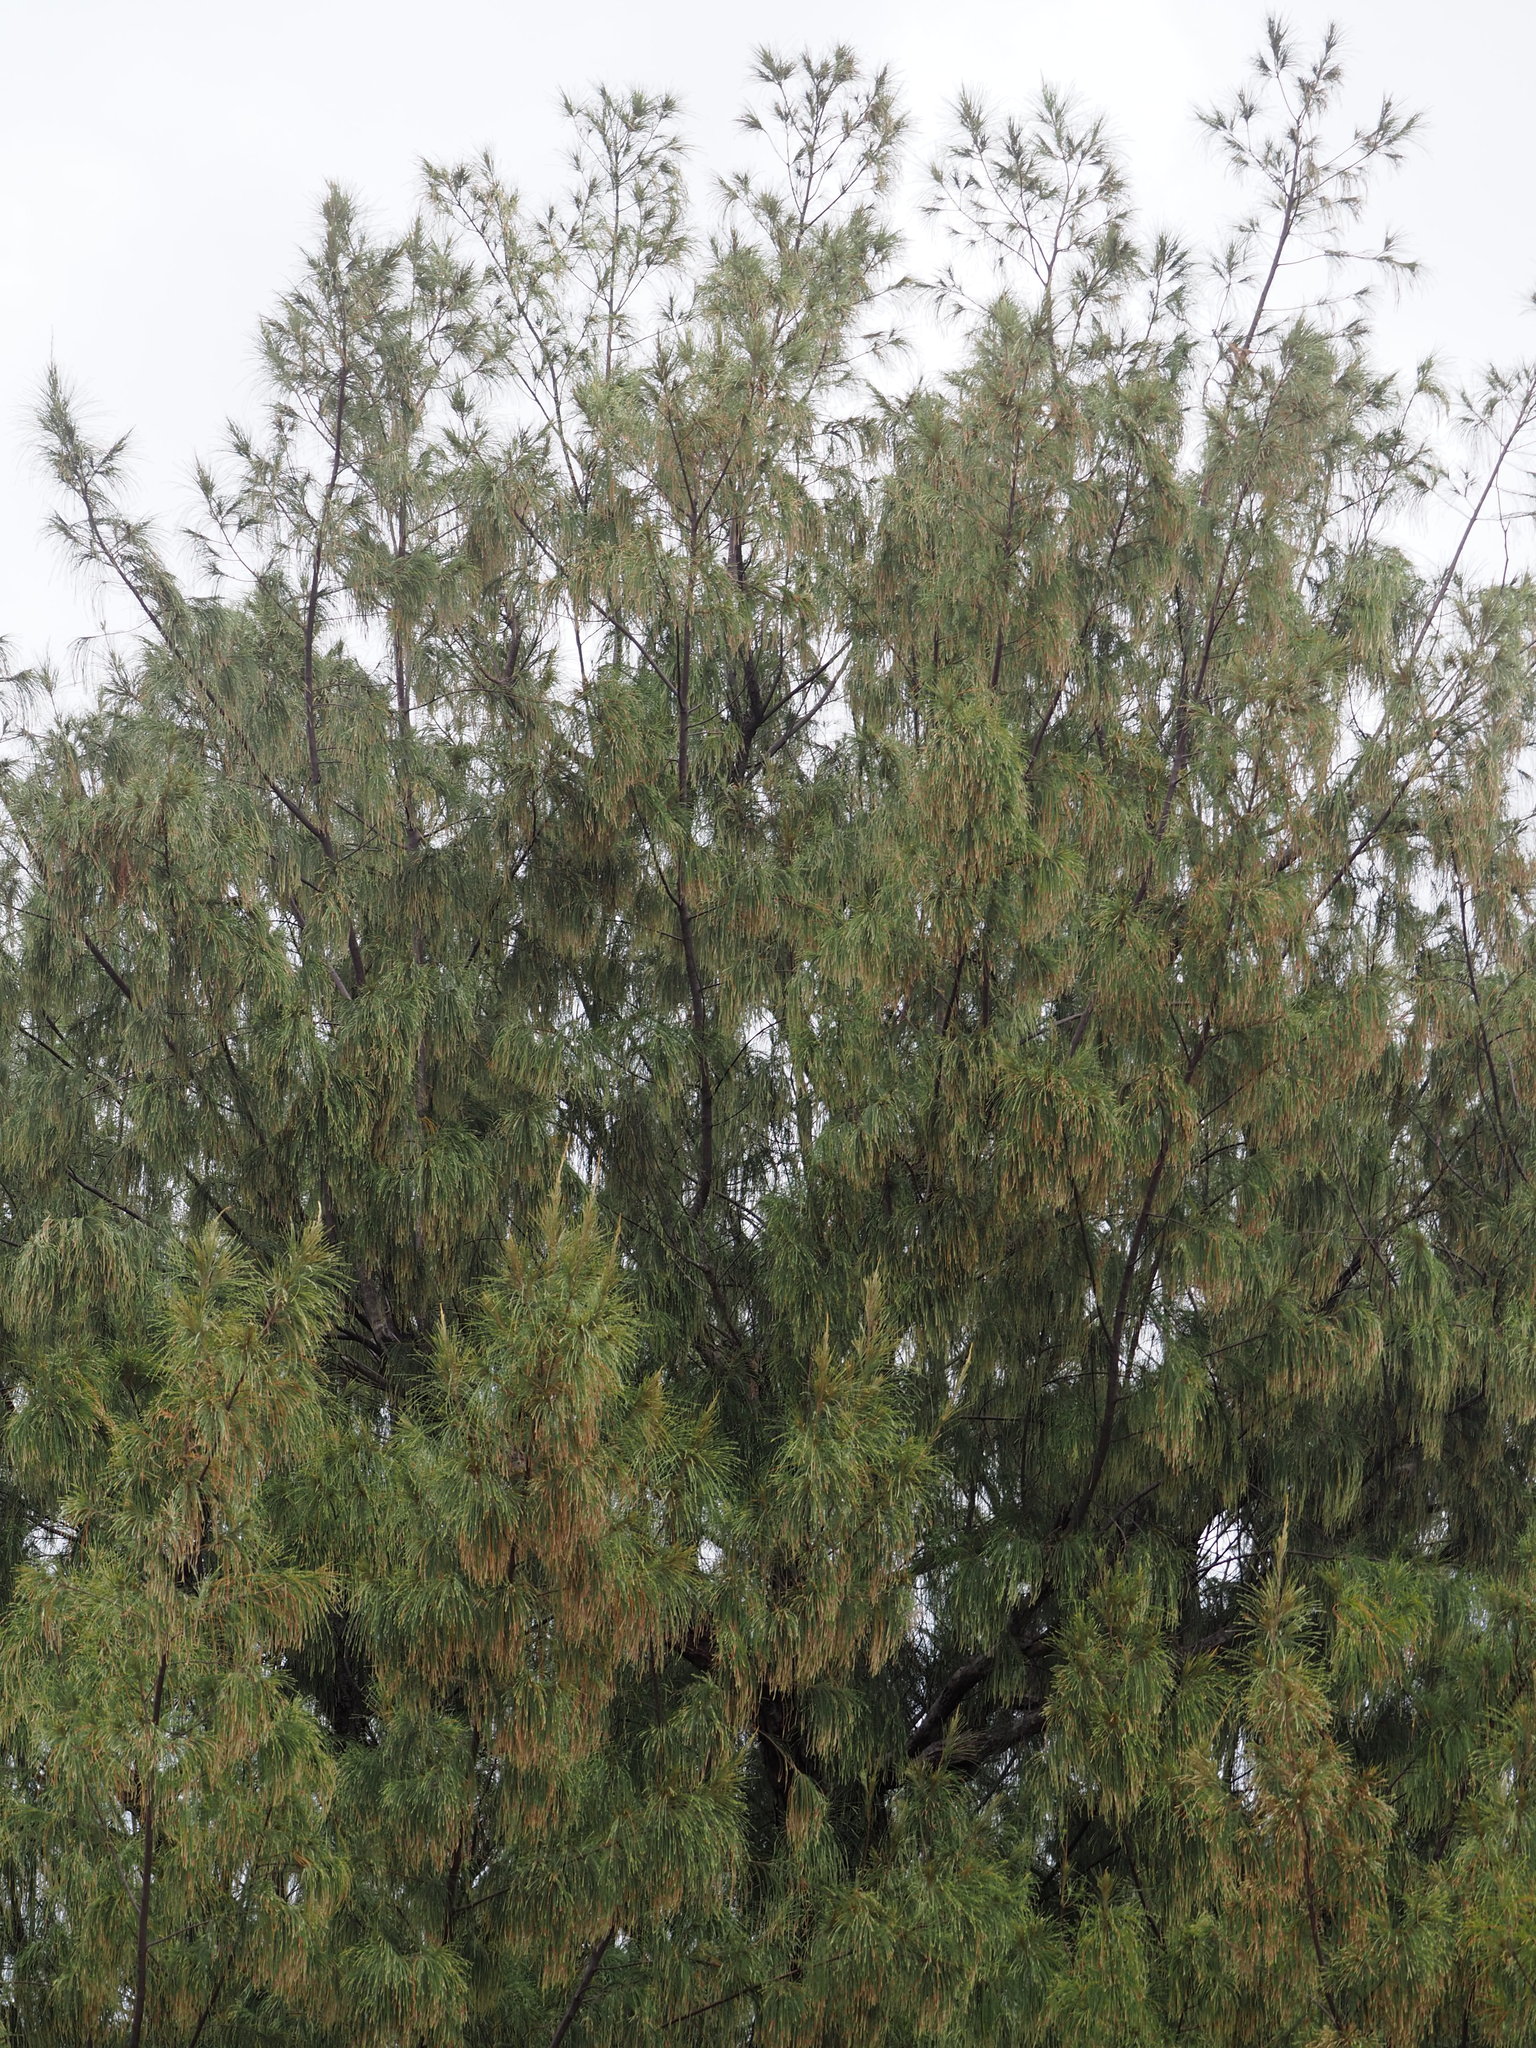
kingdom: Plantae
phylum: Tracheophyta
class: Magnoliopsida
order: Fagales
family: Casuarinaceae
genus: Casuarina
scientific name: Casuarina equisetifolia
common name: Beach sheoak
